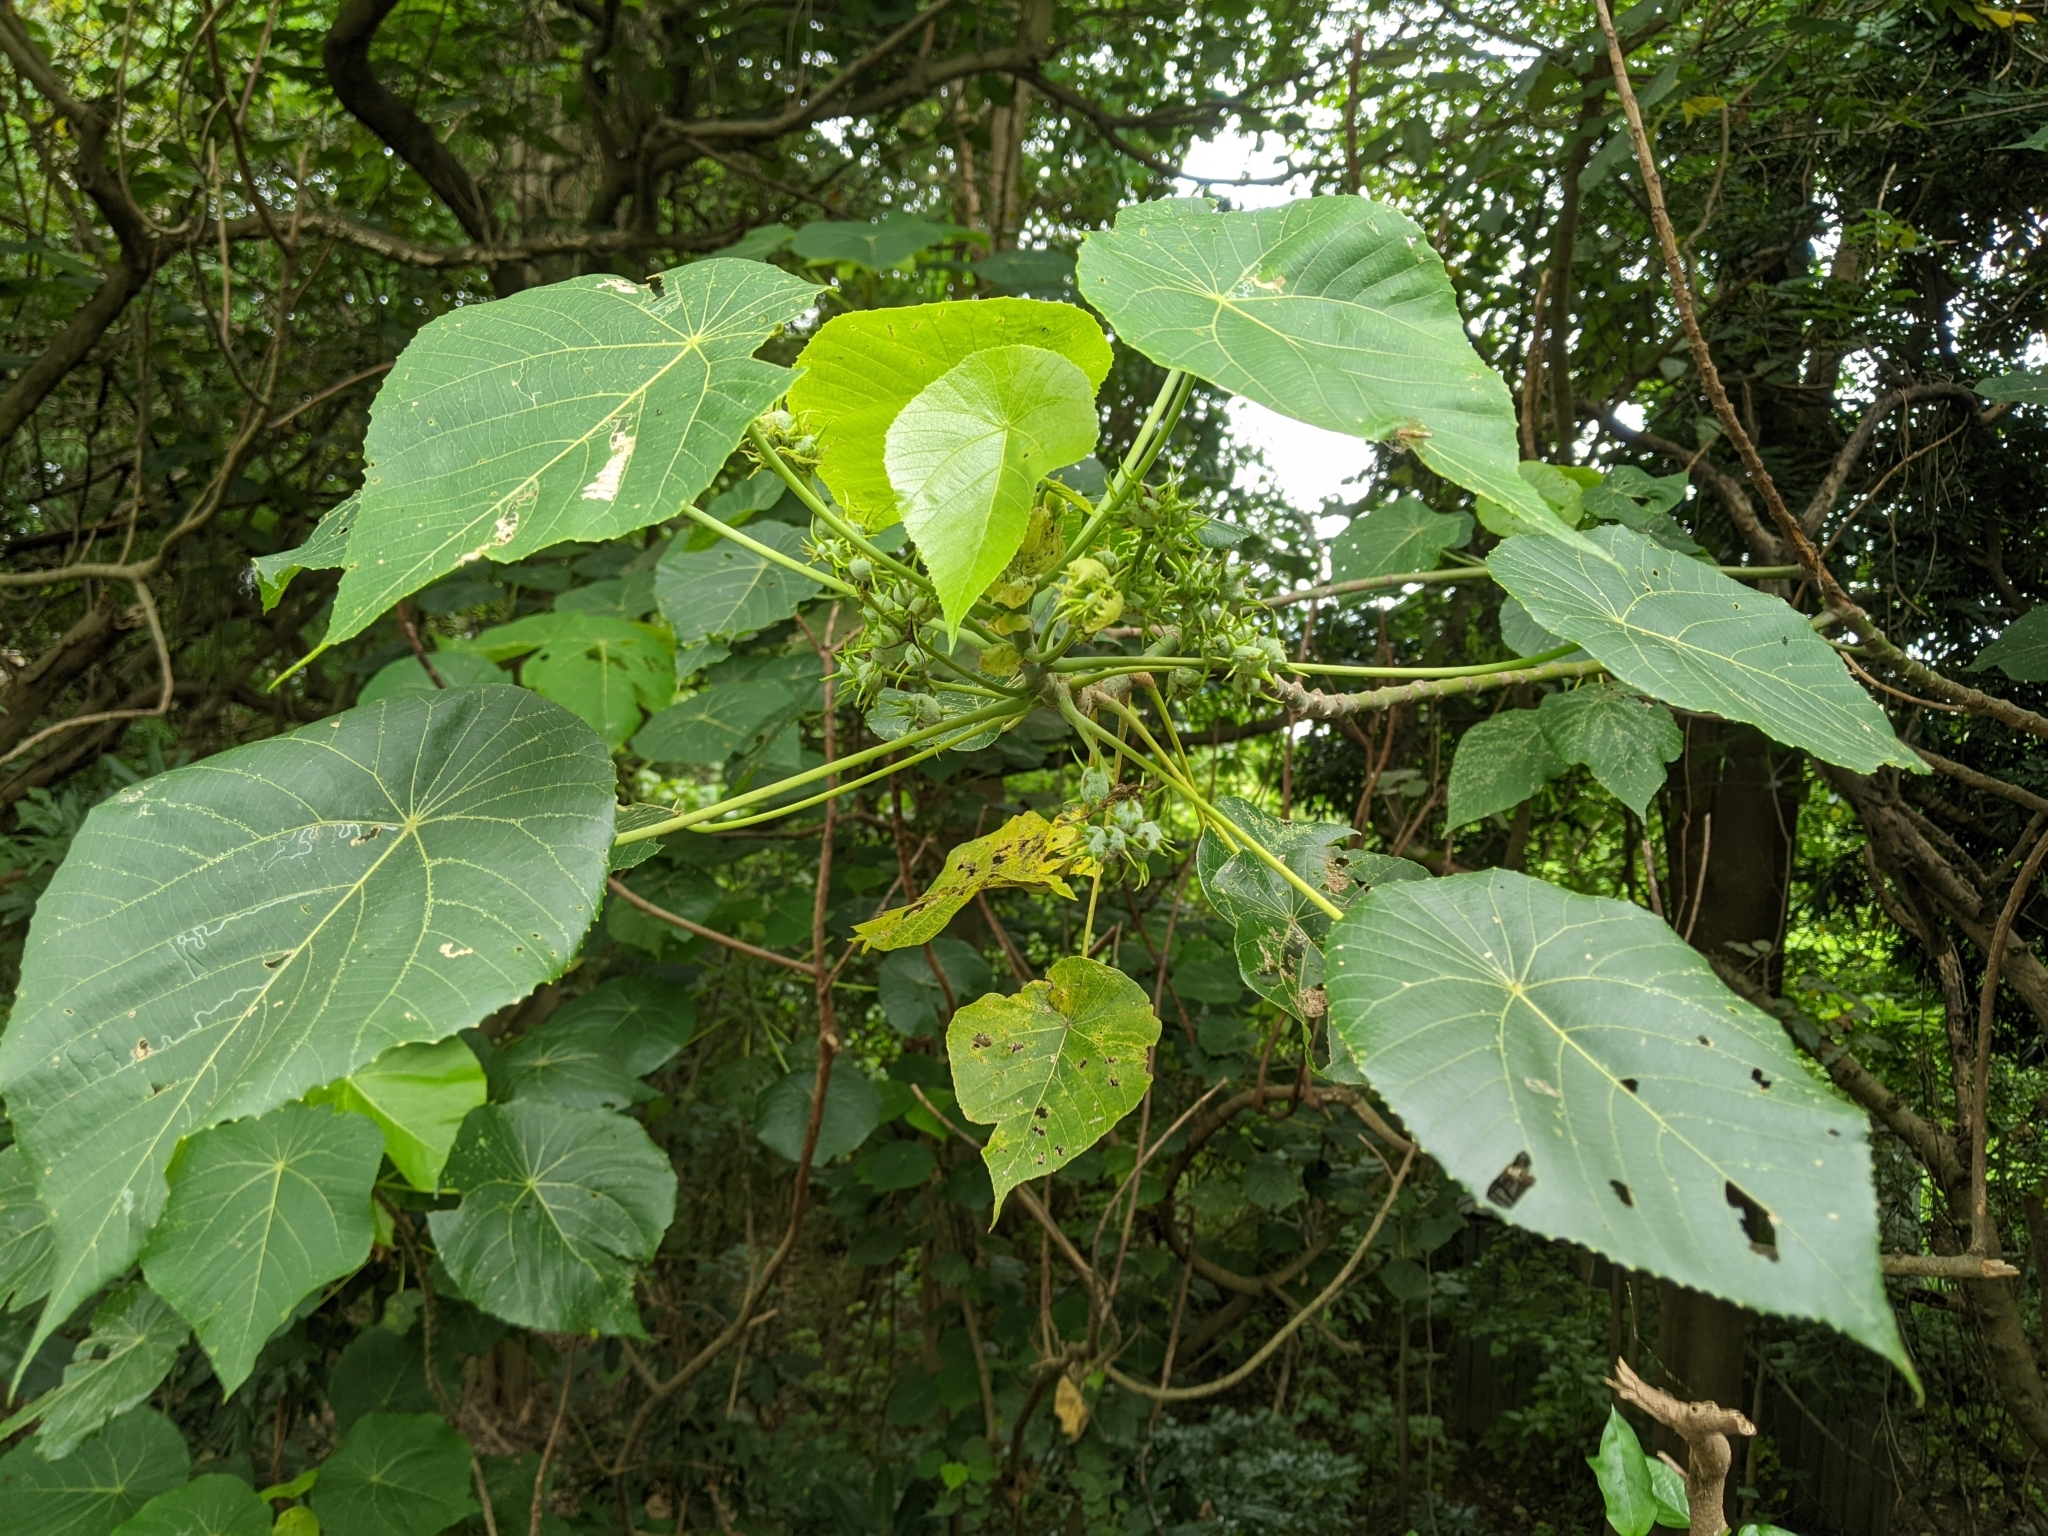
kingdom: Plantae
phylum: Tracheophyta
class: Magnoliopsida
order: Malpighiales
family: Euphorbiaceae
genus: Macaranga
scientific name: Macaranga tanarius
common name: Parasol leaf tree
